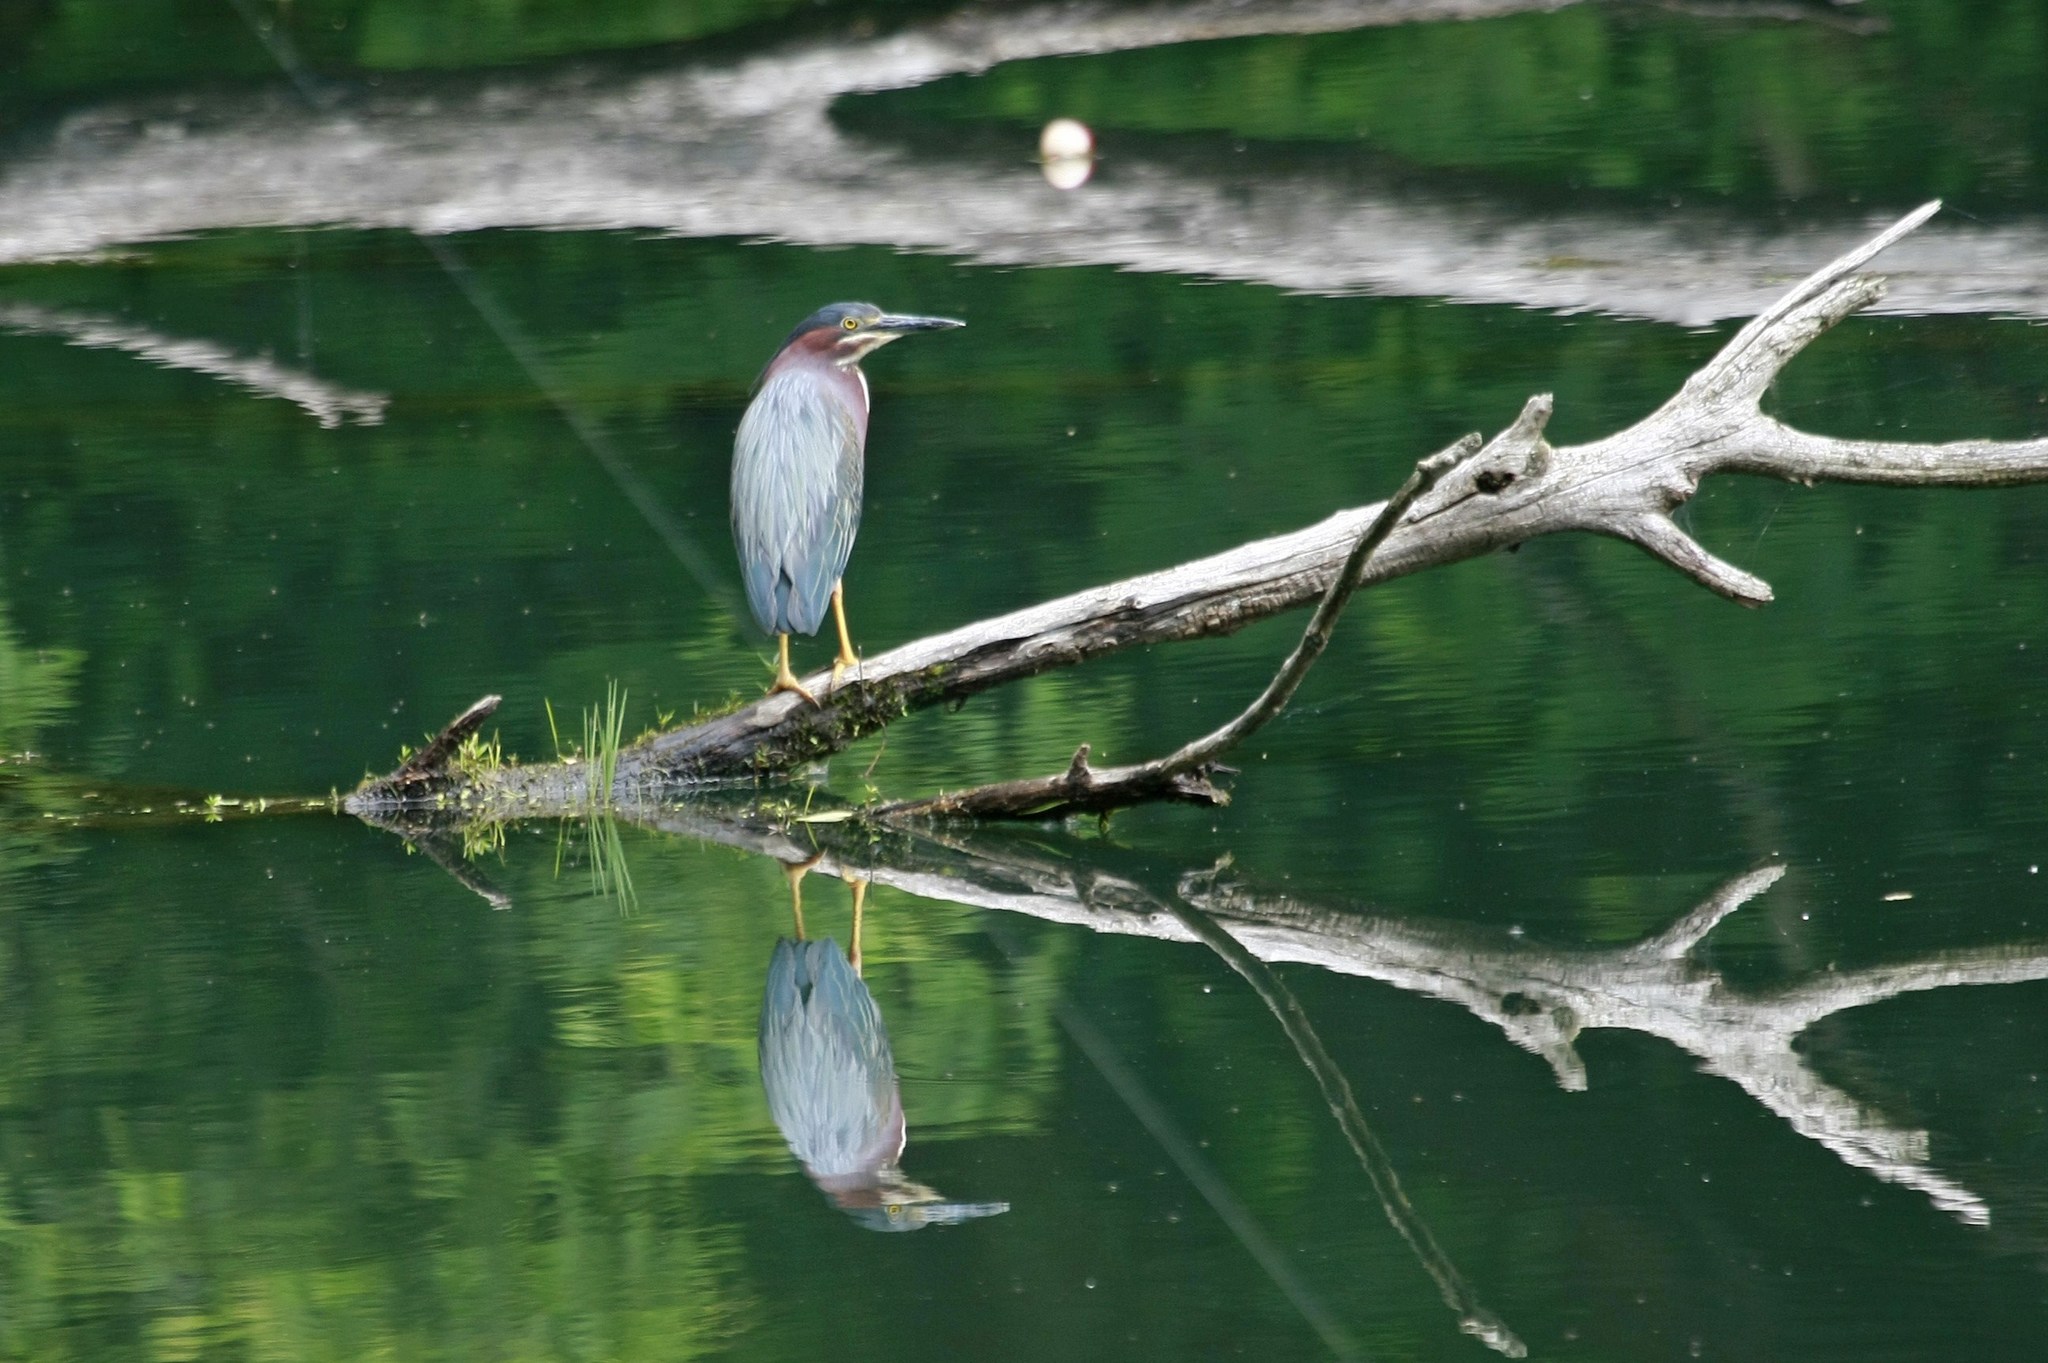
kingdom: Animalia
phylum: Chordata
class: Aves
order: Pelecaniformes
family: Ardeidae
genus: Butorides
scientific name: Butorides virescens
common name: Green heron
